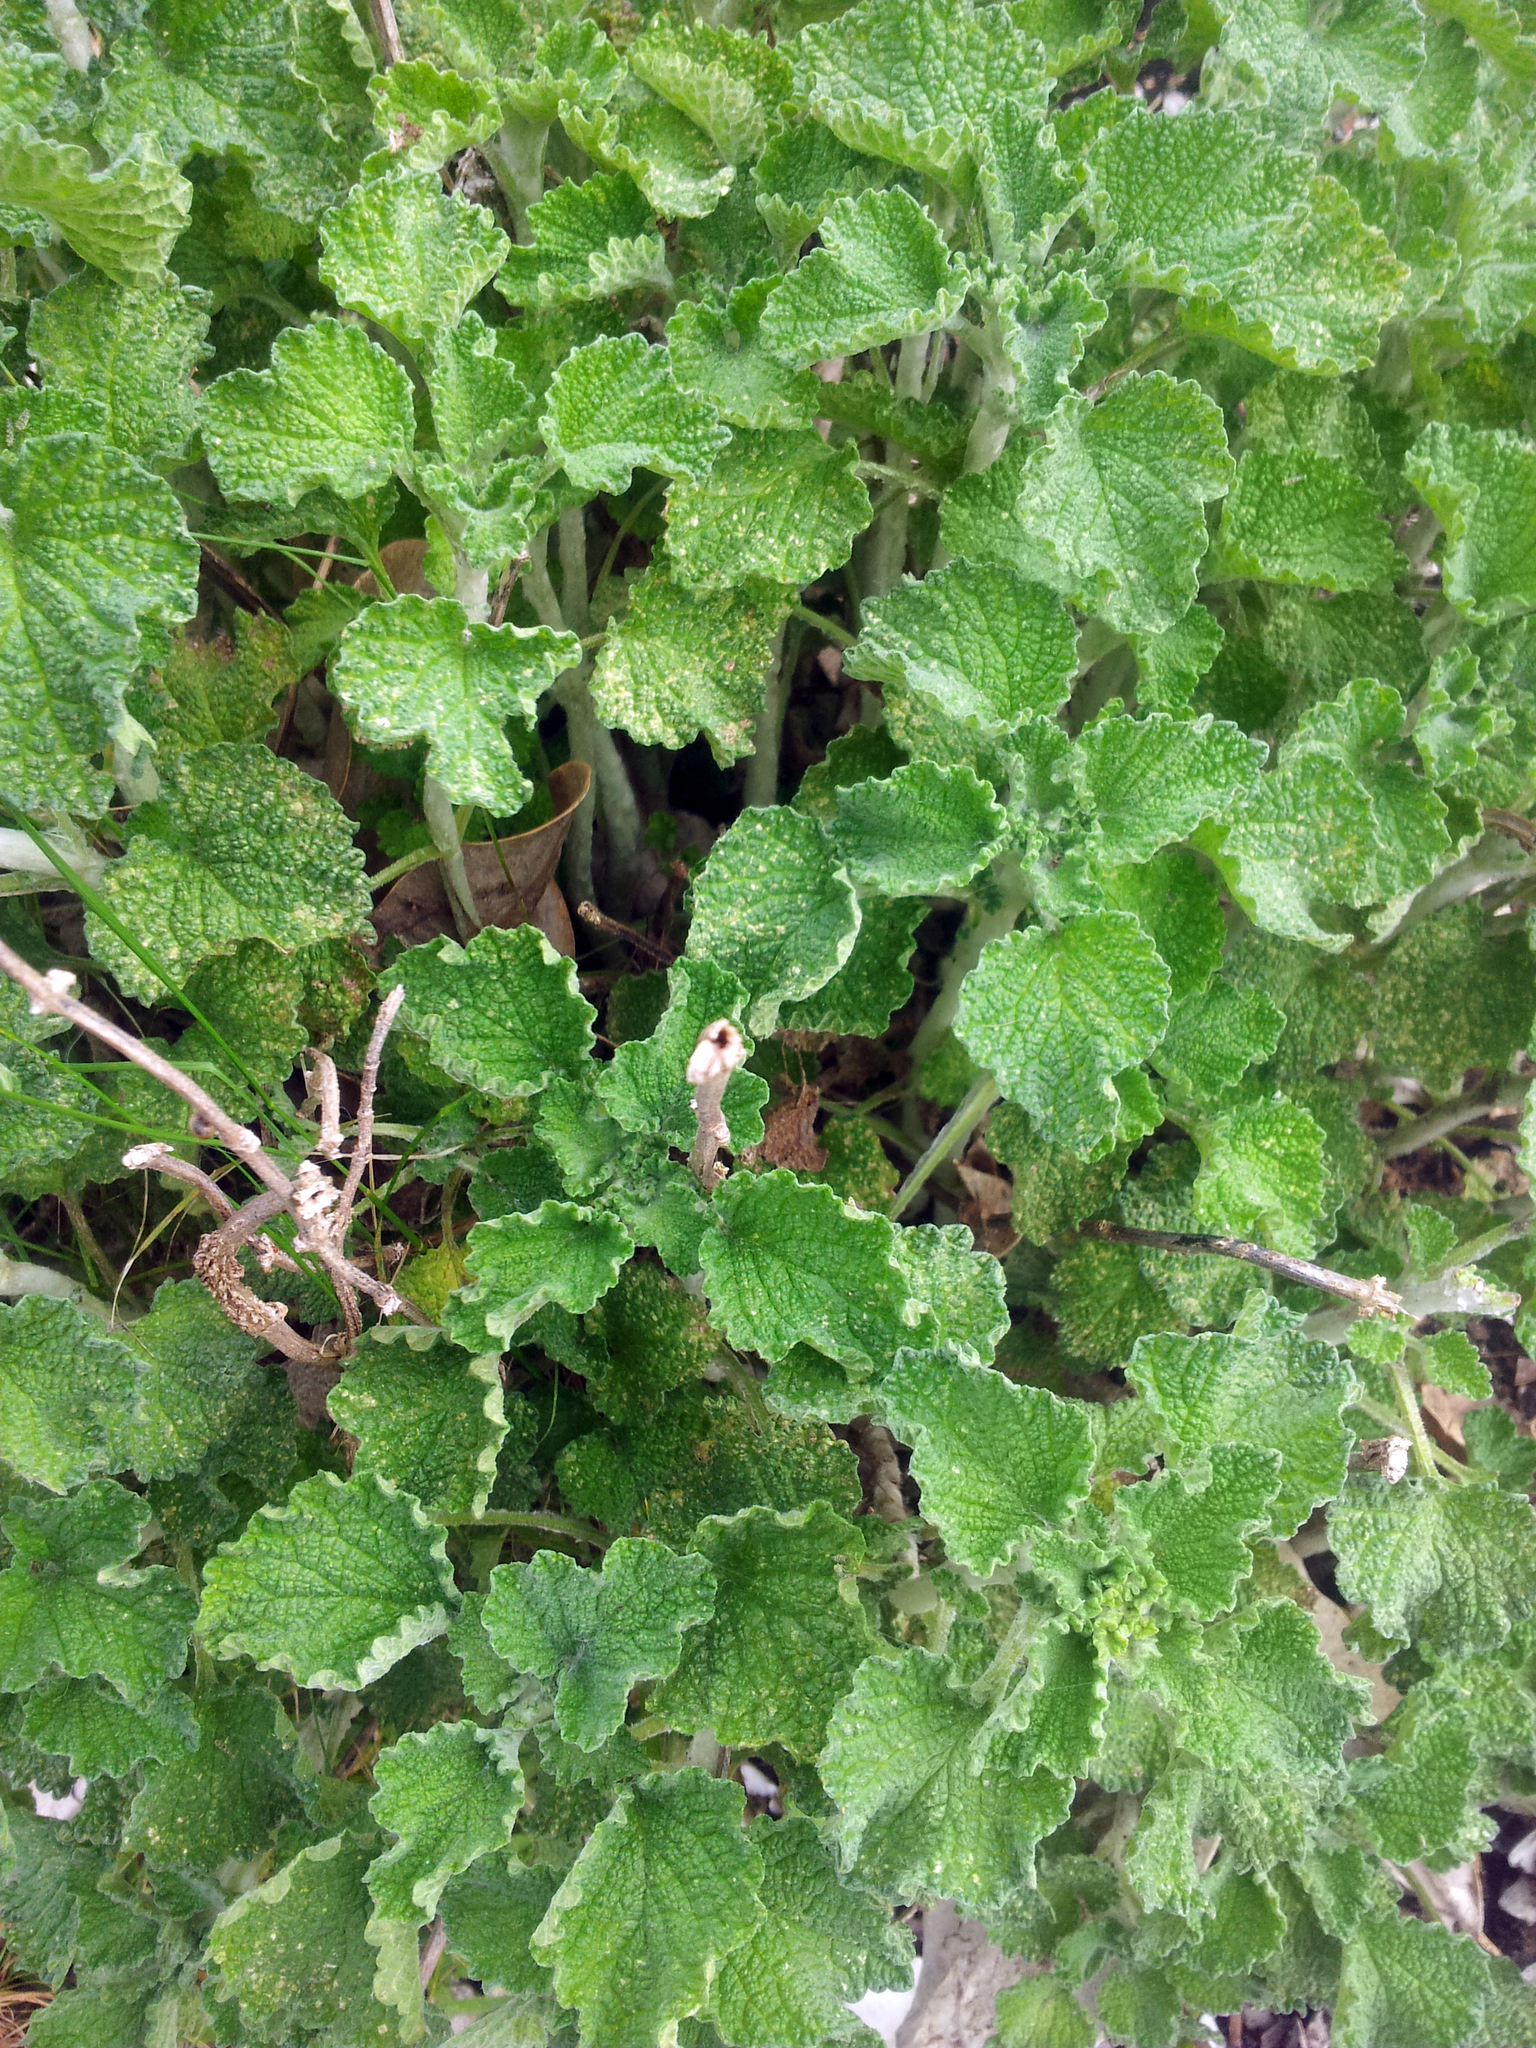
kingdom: Plantae
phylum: Tracheophyta
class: Magnoliopsida
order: Lamiales
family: Lamiaceae
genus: Marrubium
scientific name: Marrubium vulgare
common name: Horehound
